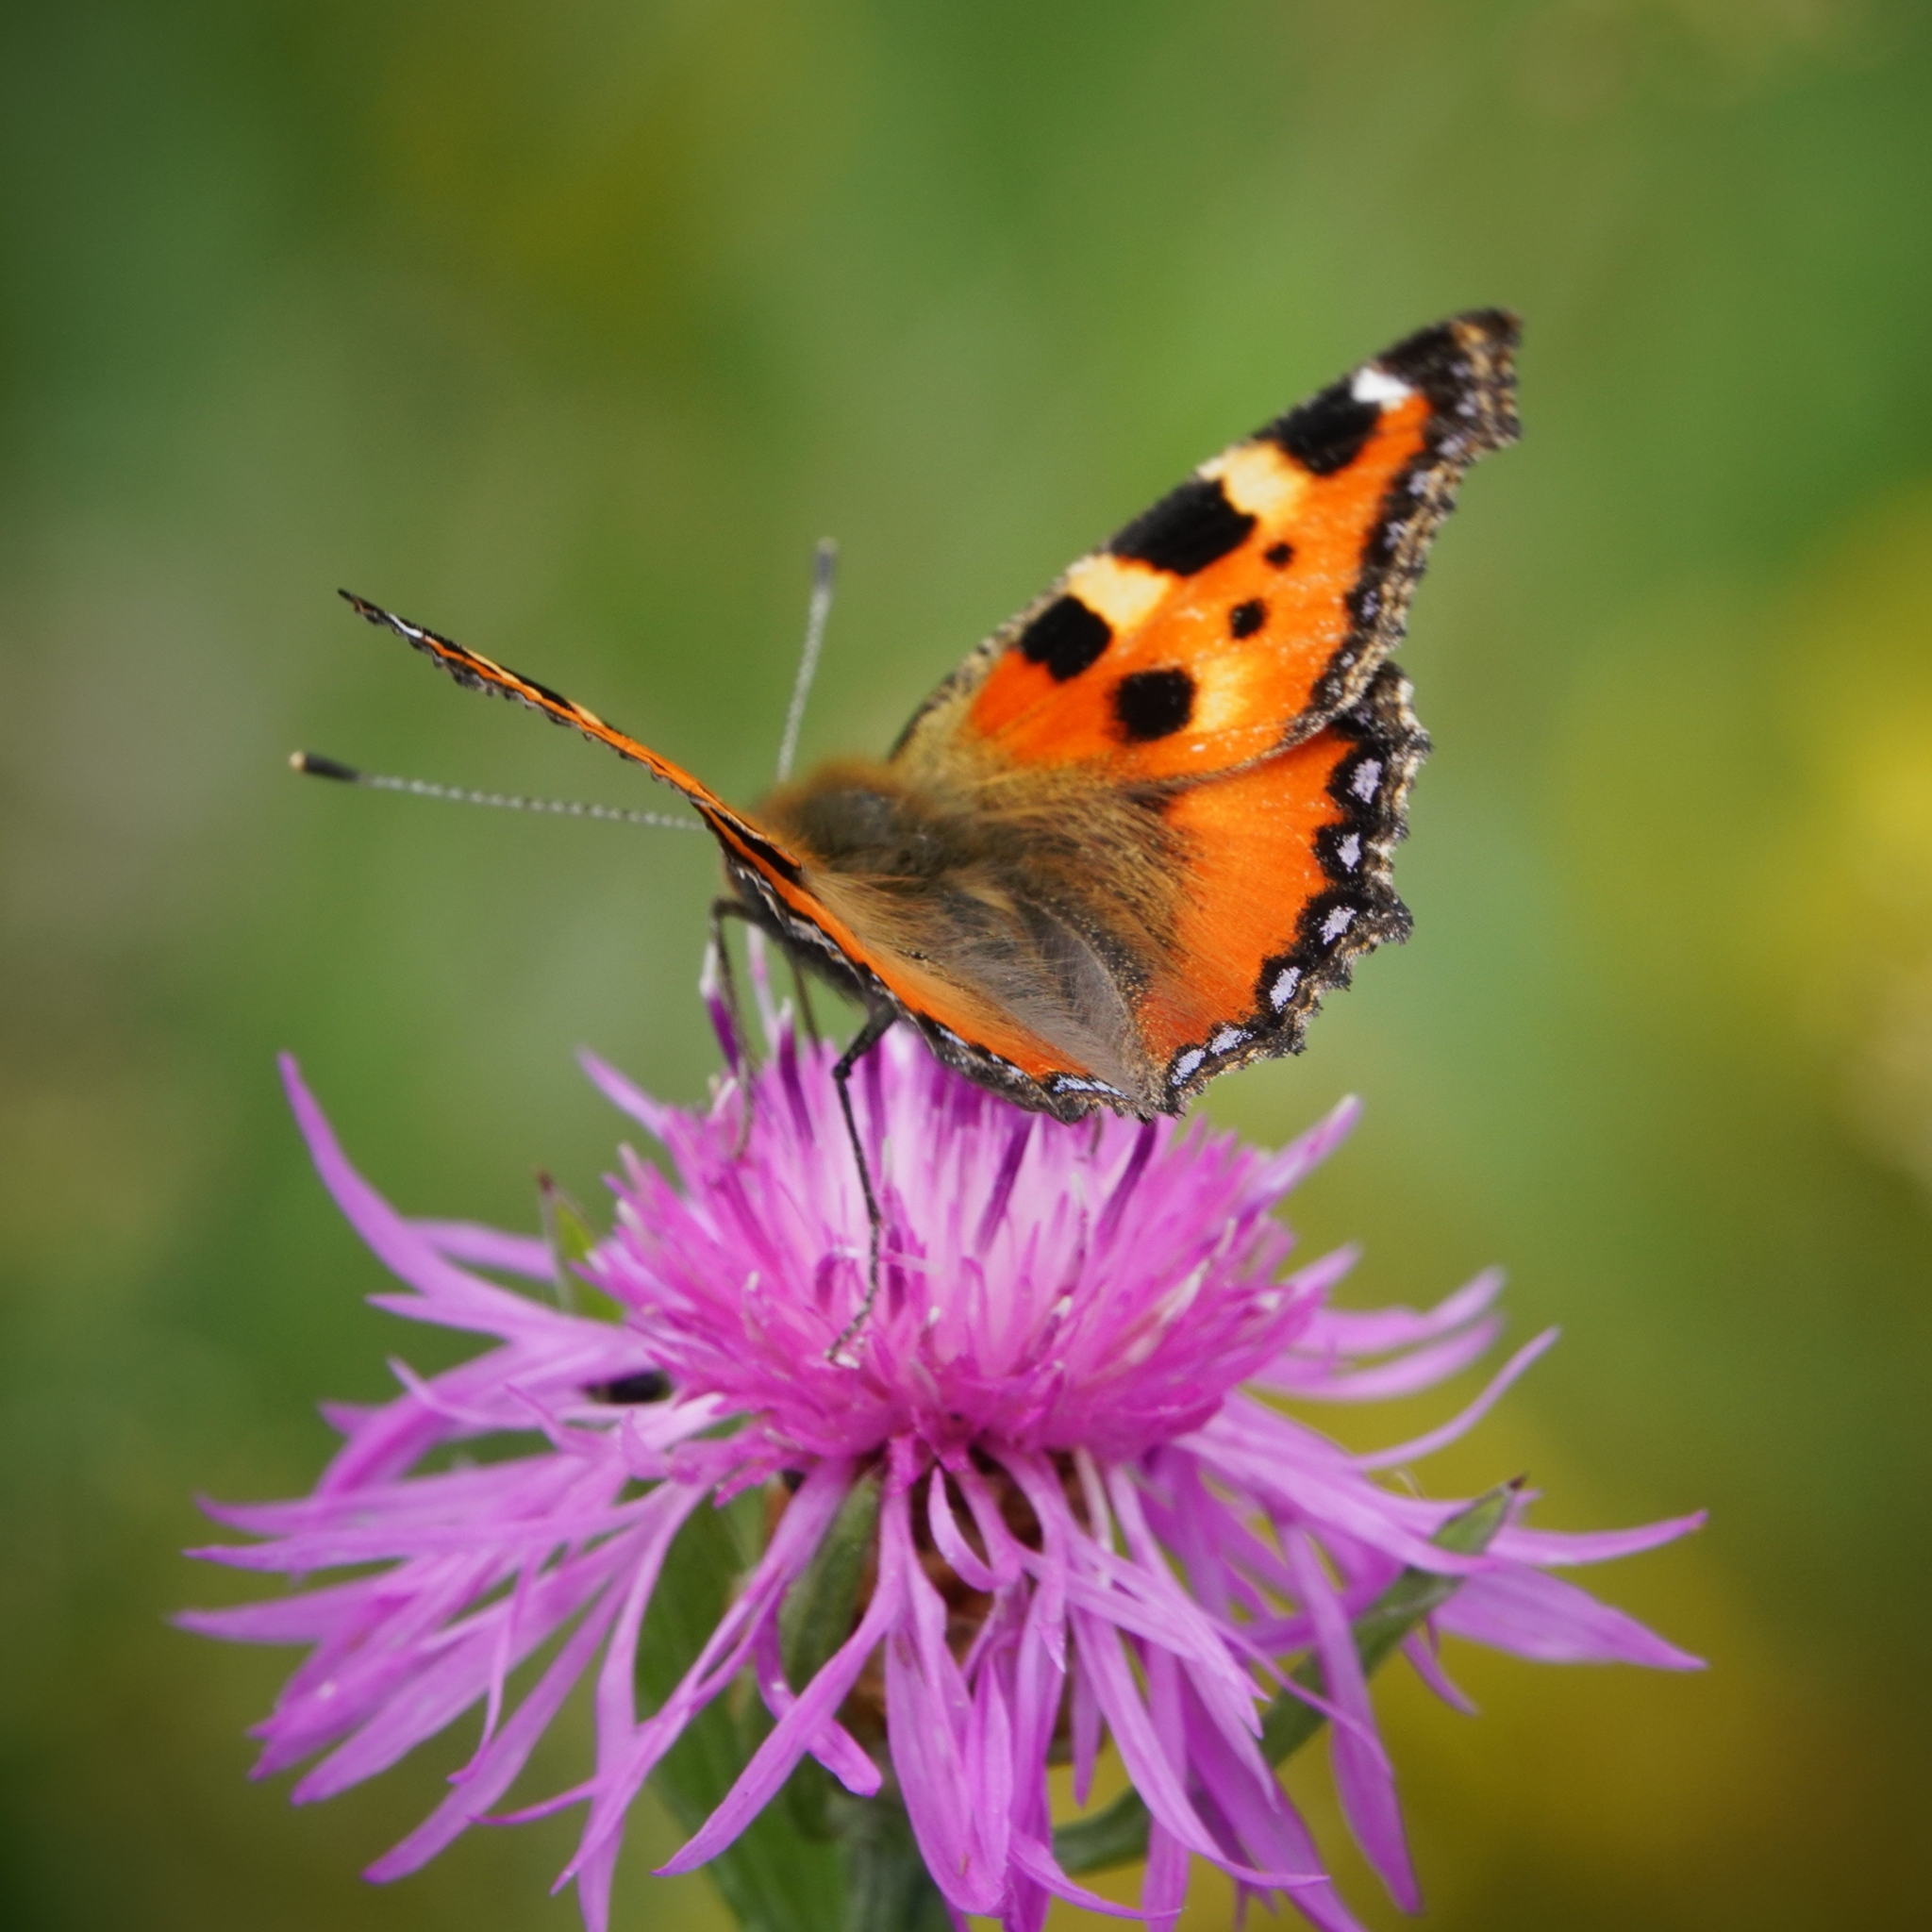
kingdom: Animalia
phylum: Arthropoda
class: Insecta
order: Lepidoptera
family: Nymphalidae
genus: Aglais
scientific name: Aglais urticae
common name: Small tortoiseshell
